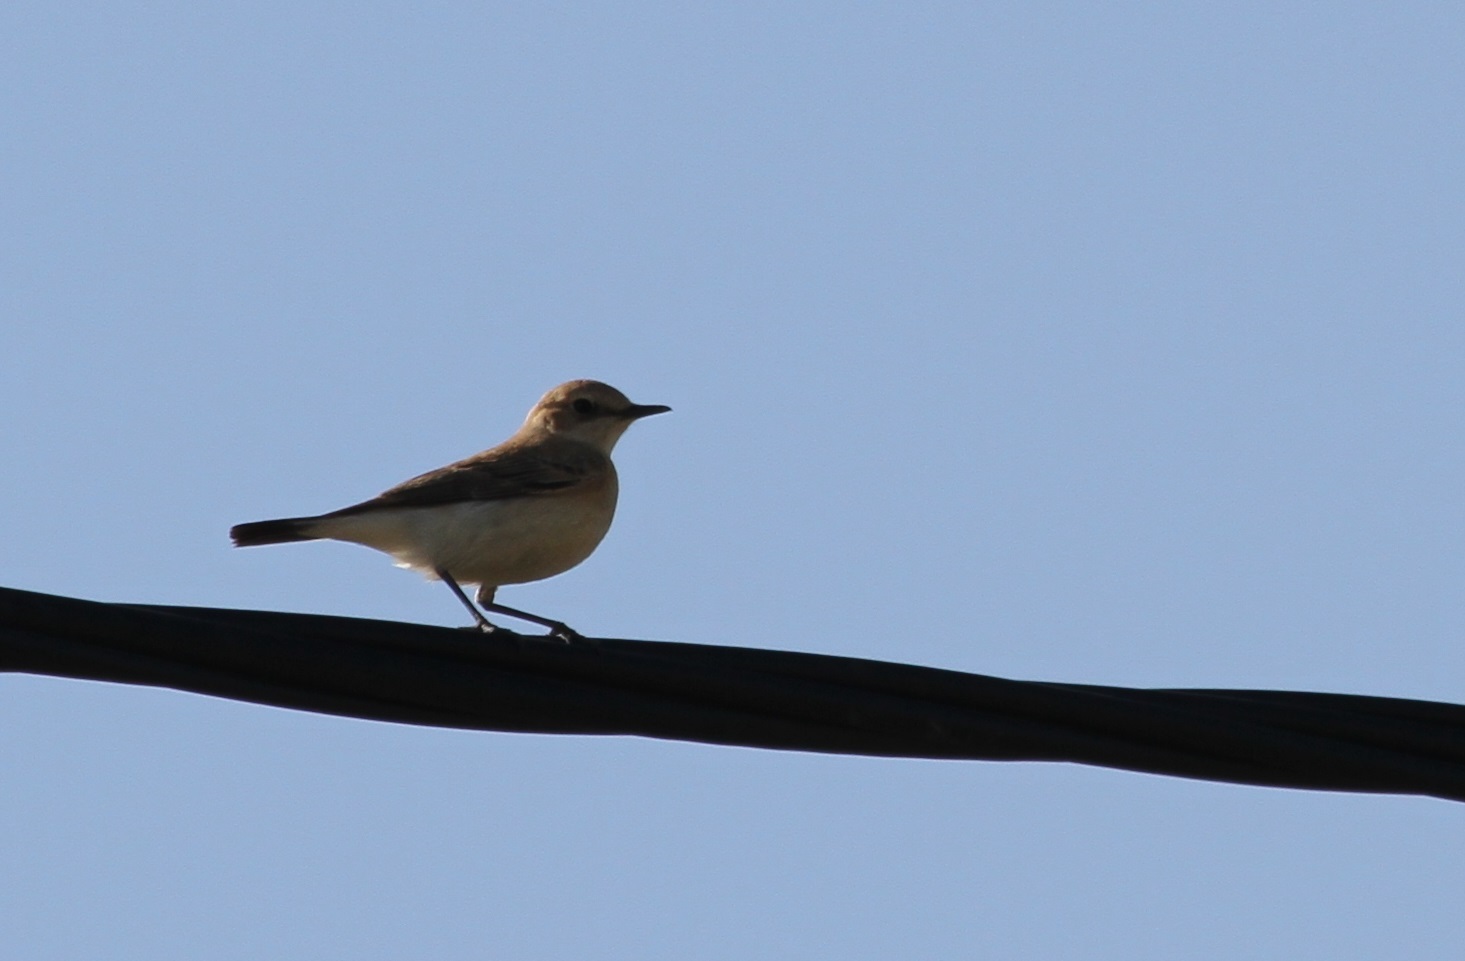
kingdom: Animalia
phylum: Chordata
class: Aves
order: Passeriformes
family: Muscicapidae
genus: Oenanthe
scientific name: Oenanthe hispanica
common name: Black-eared wheatear
